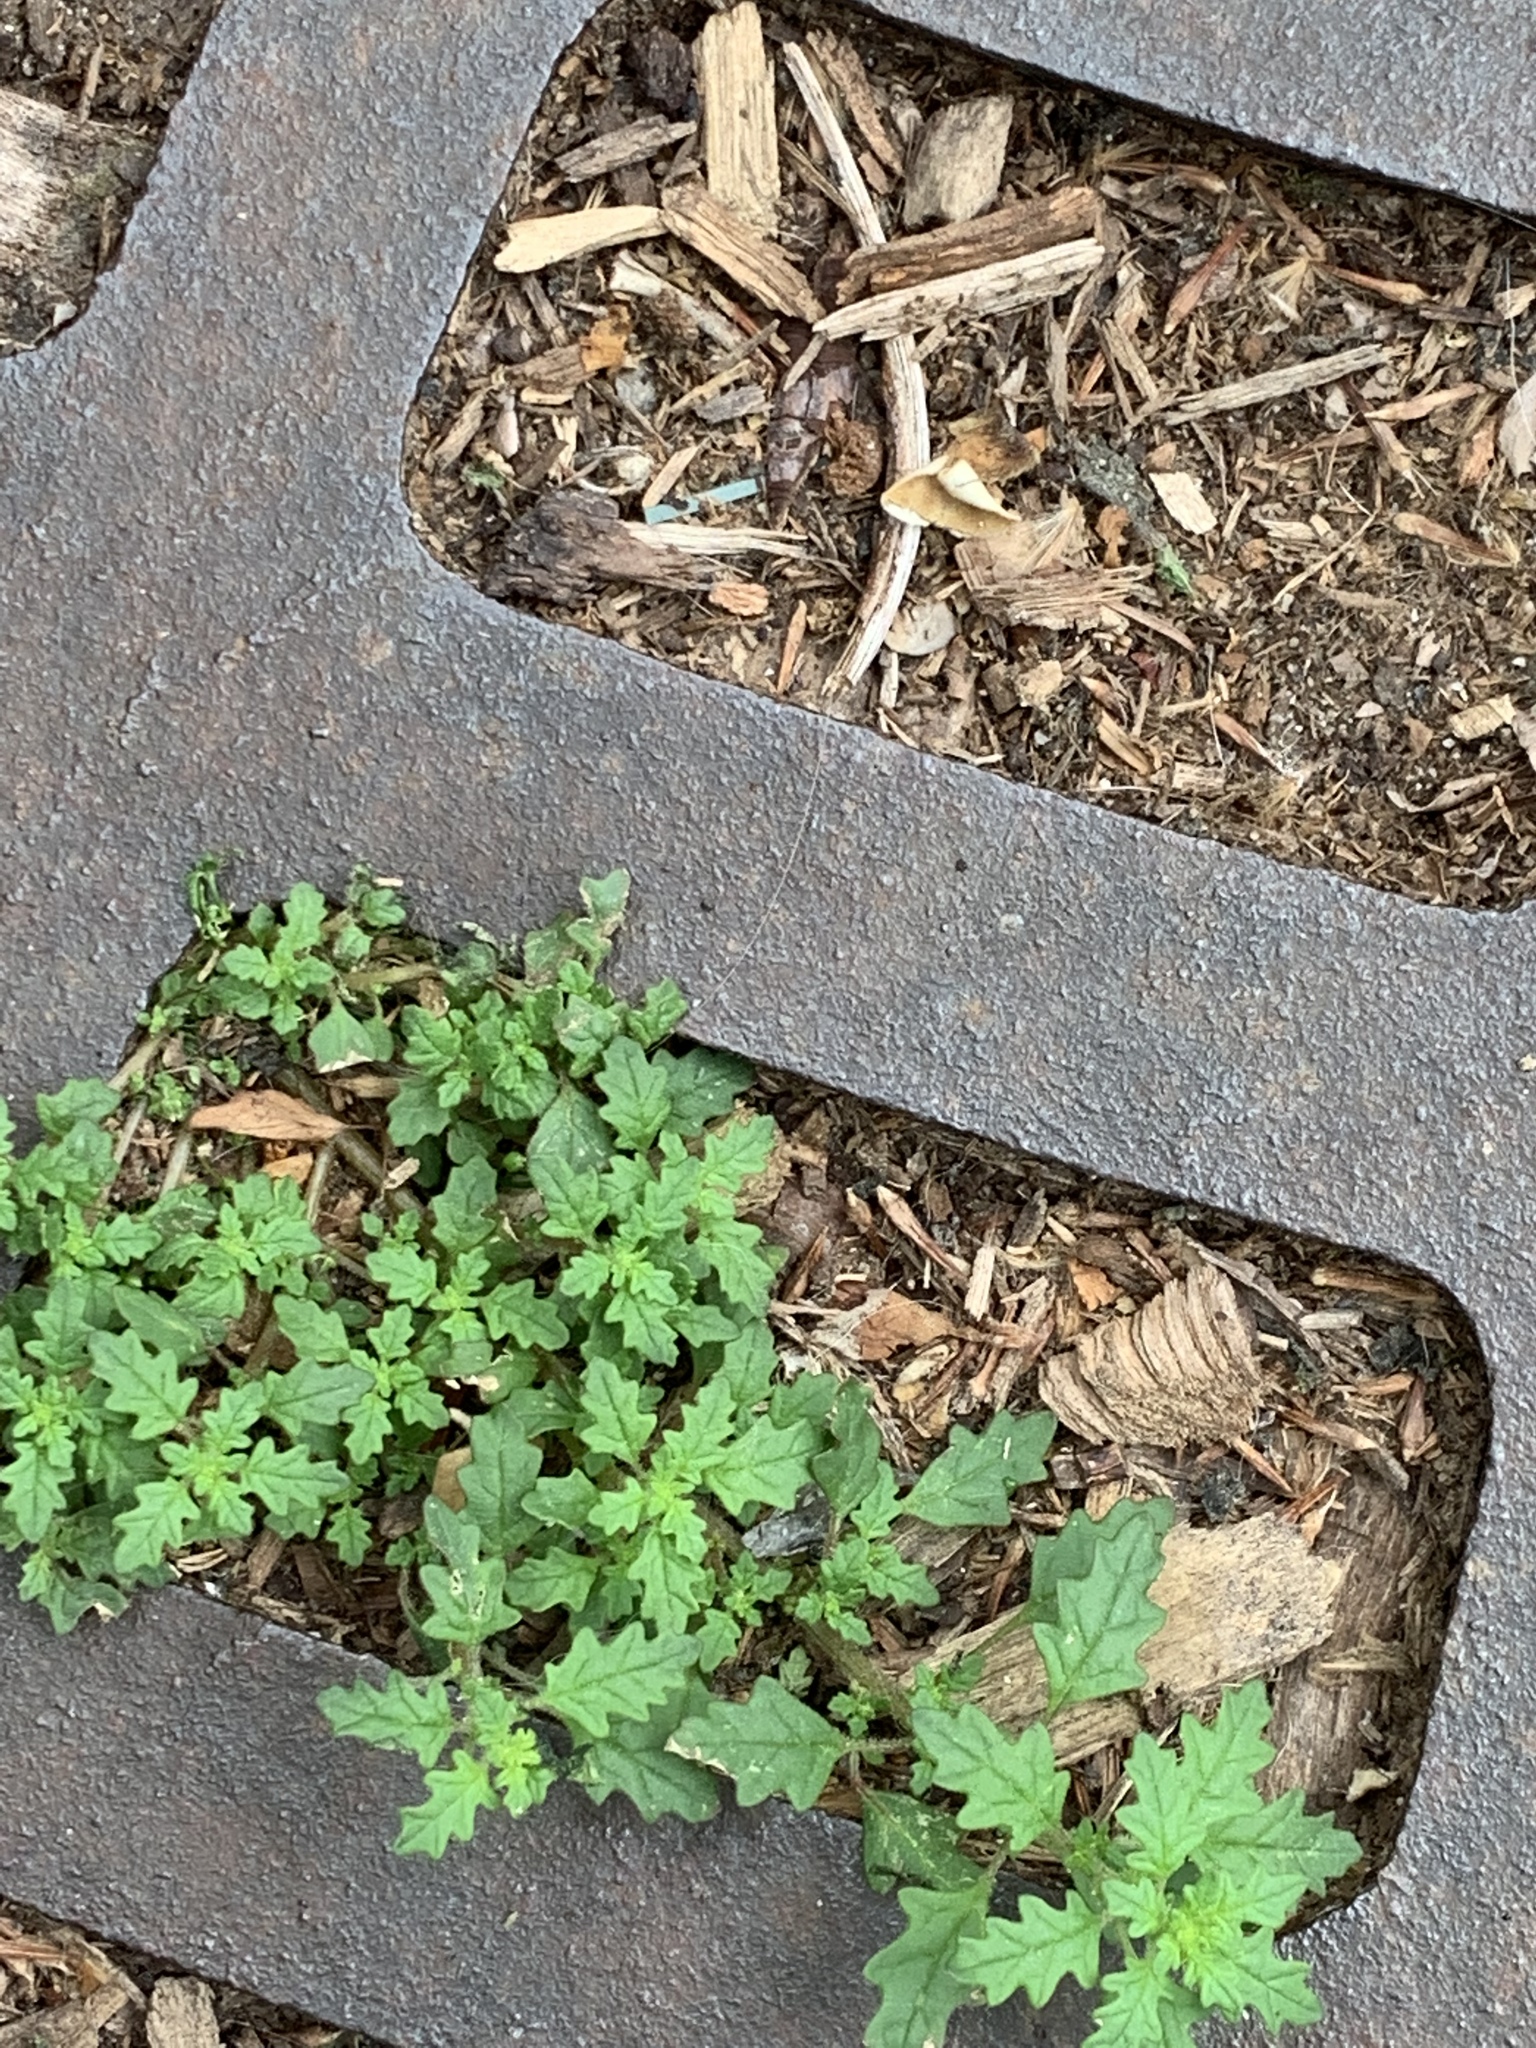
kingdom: Plantae
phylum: Tracheophyta
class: Magnoliopsida
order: Caryophyllales
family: Amaranthaceae
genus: Dysphania
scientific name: Dysphania pumilio
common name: Clammy goosefoot
